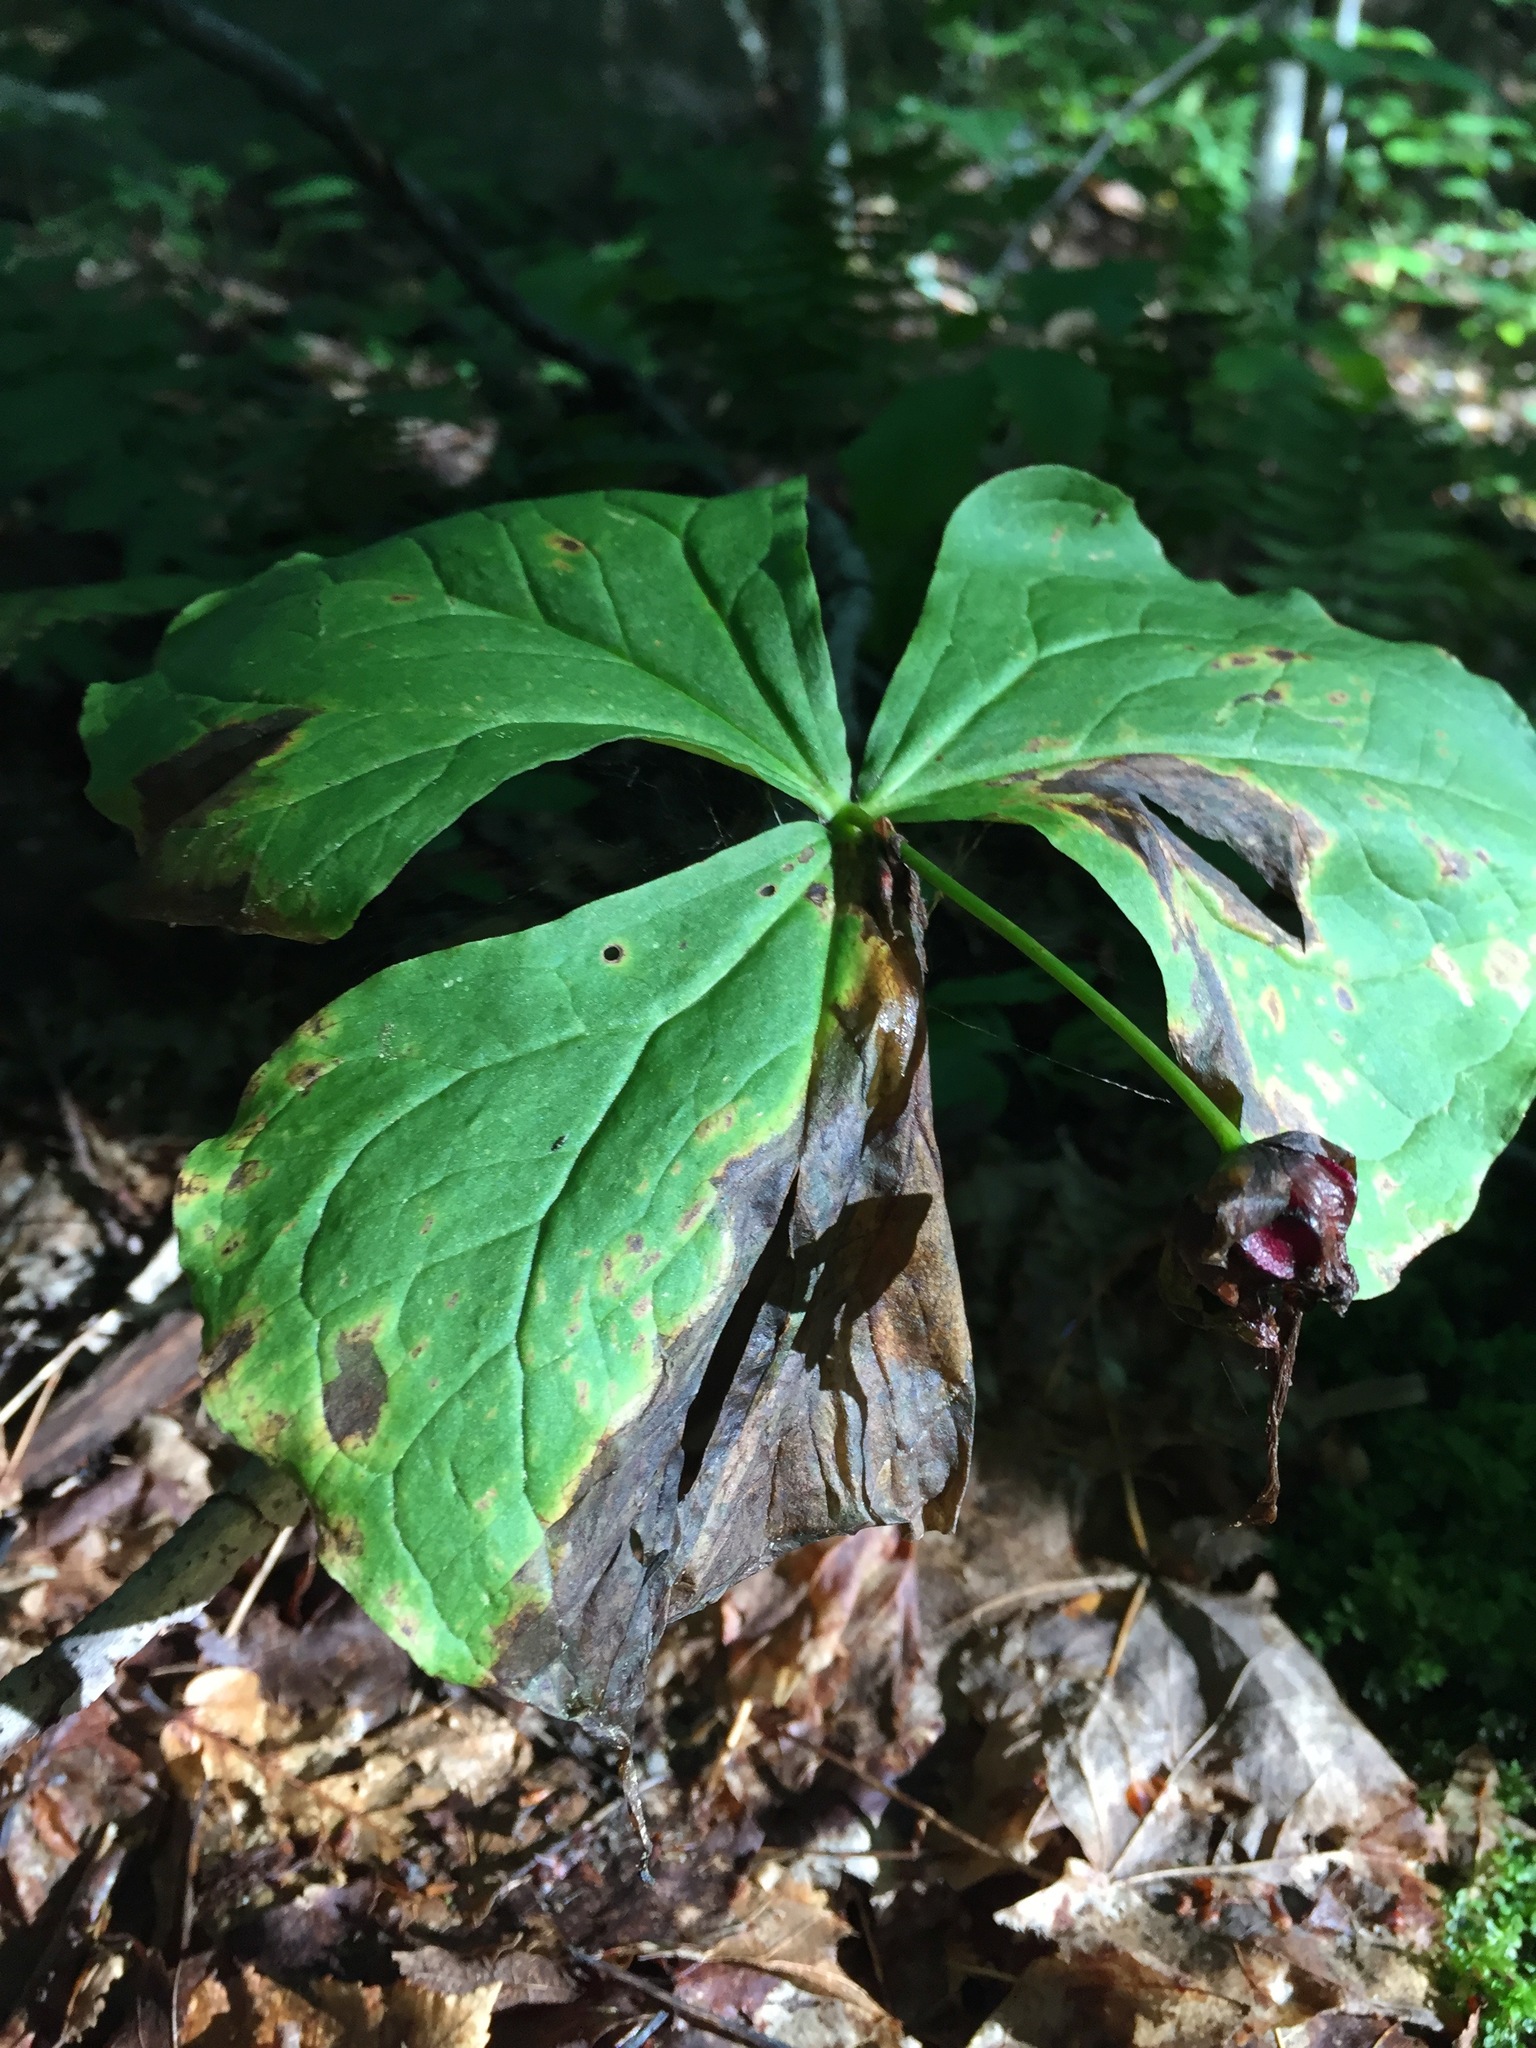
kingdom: Plantae
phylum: Tracheophyta
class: Liliopsida
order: Liliales
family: Melanthiaceae
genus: Trillium
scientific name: Trillium erectum
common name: Purple trillium
